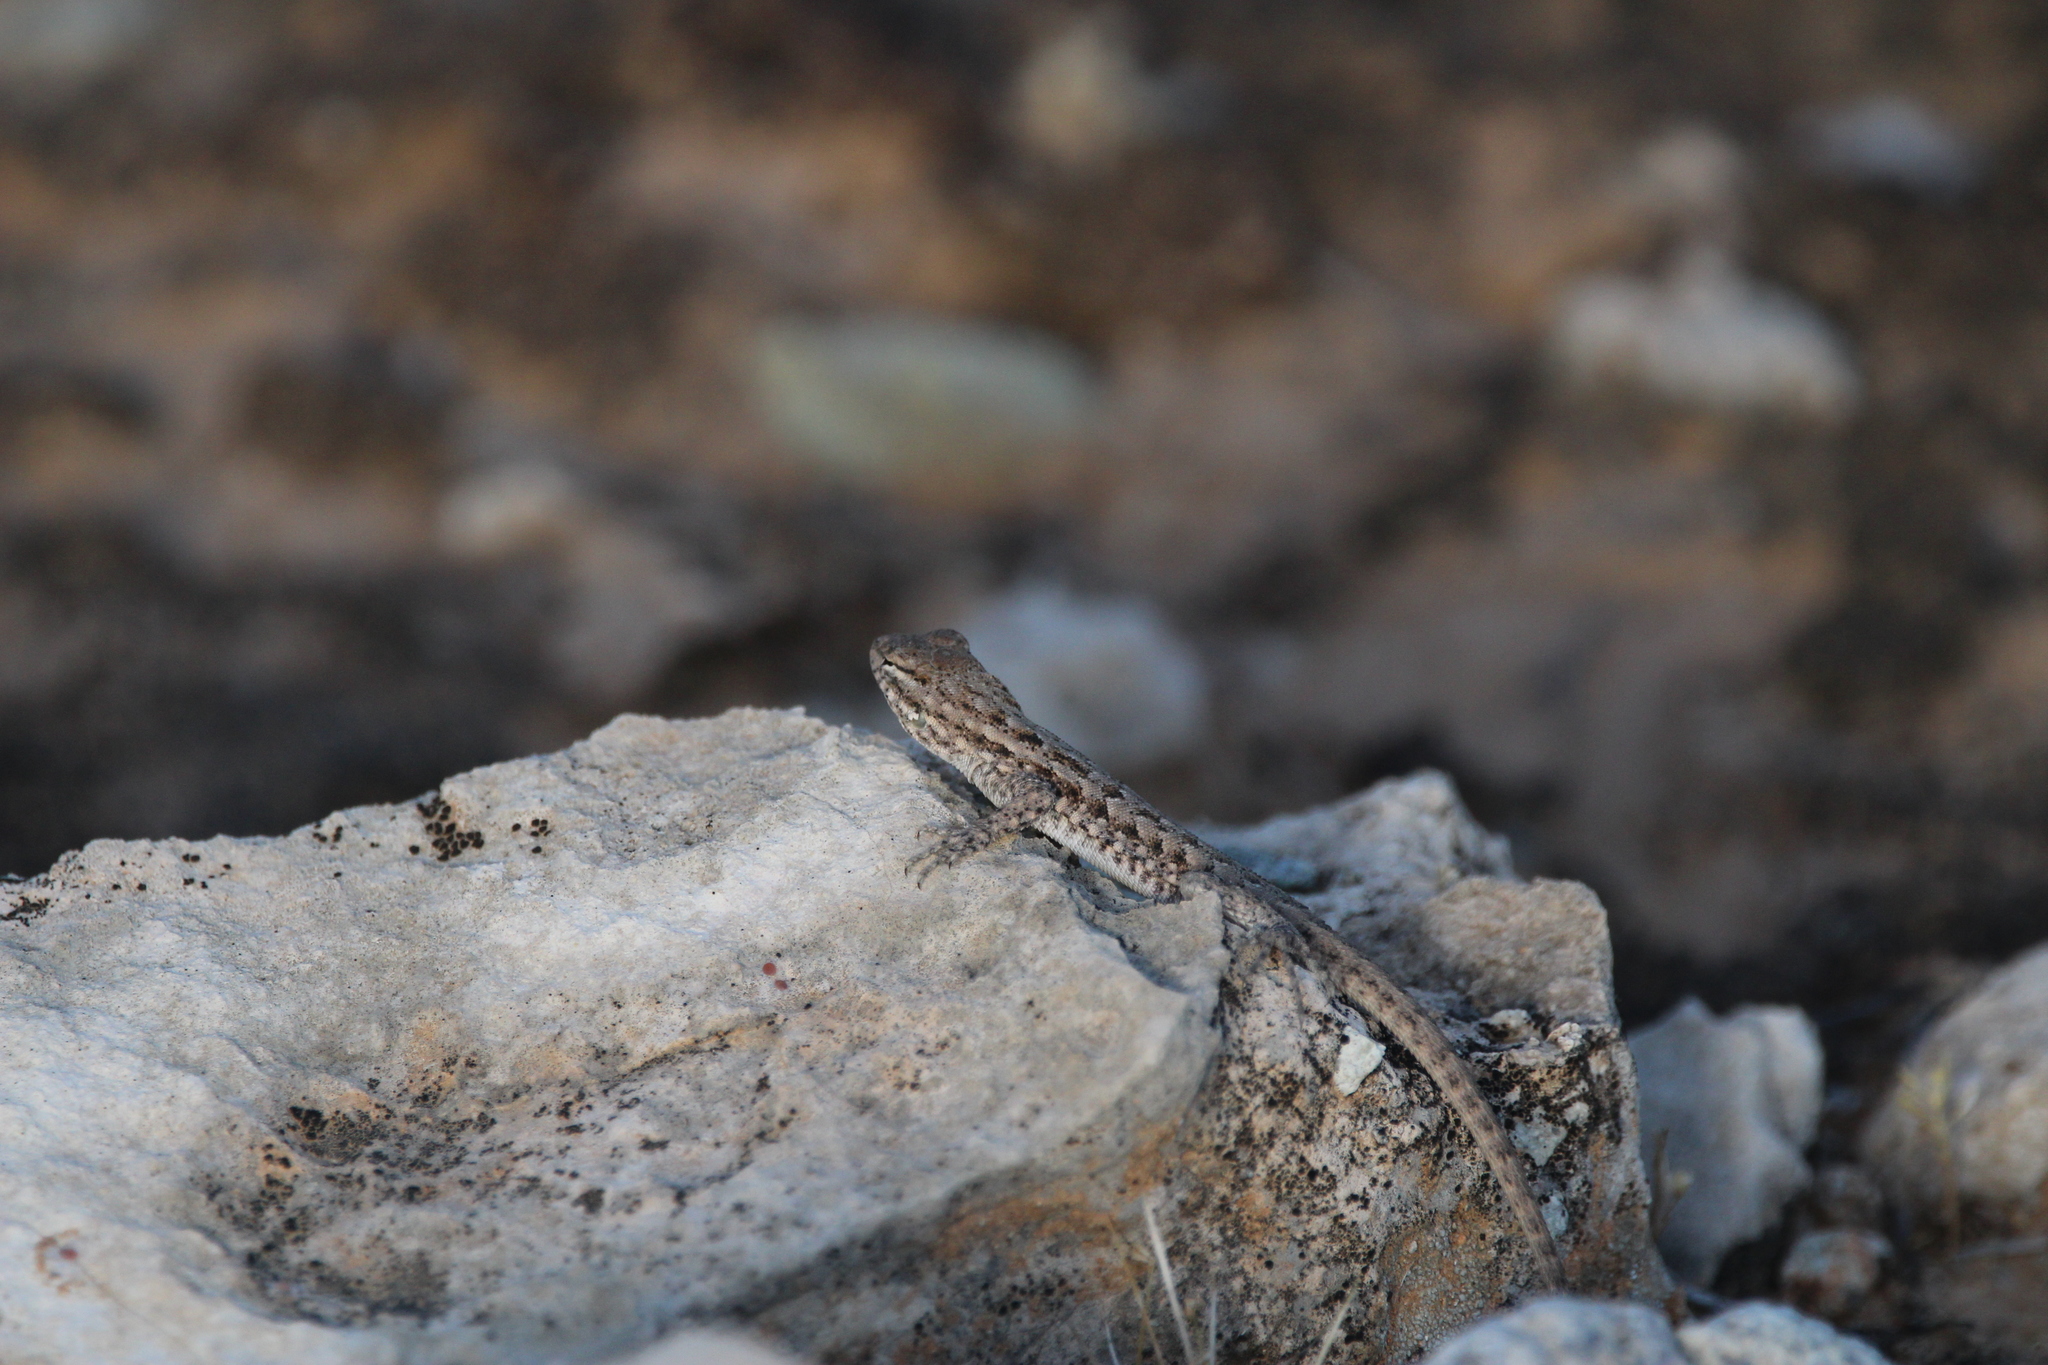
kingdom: Animalia
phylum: Chordata
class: Squamata
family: Phrynosomatidae
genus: Uta
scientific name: Uta stansburiana
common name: Side-blotched lizard
